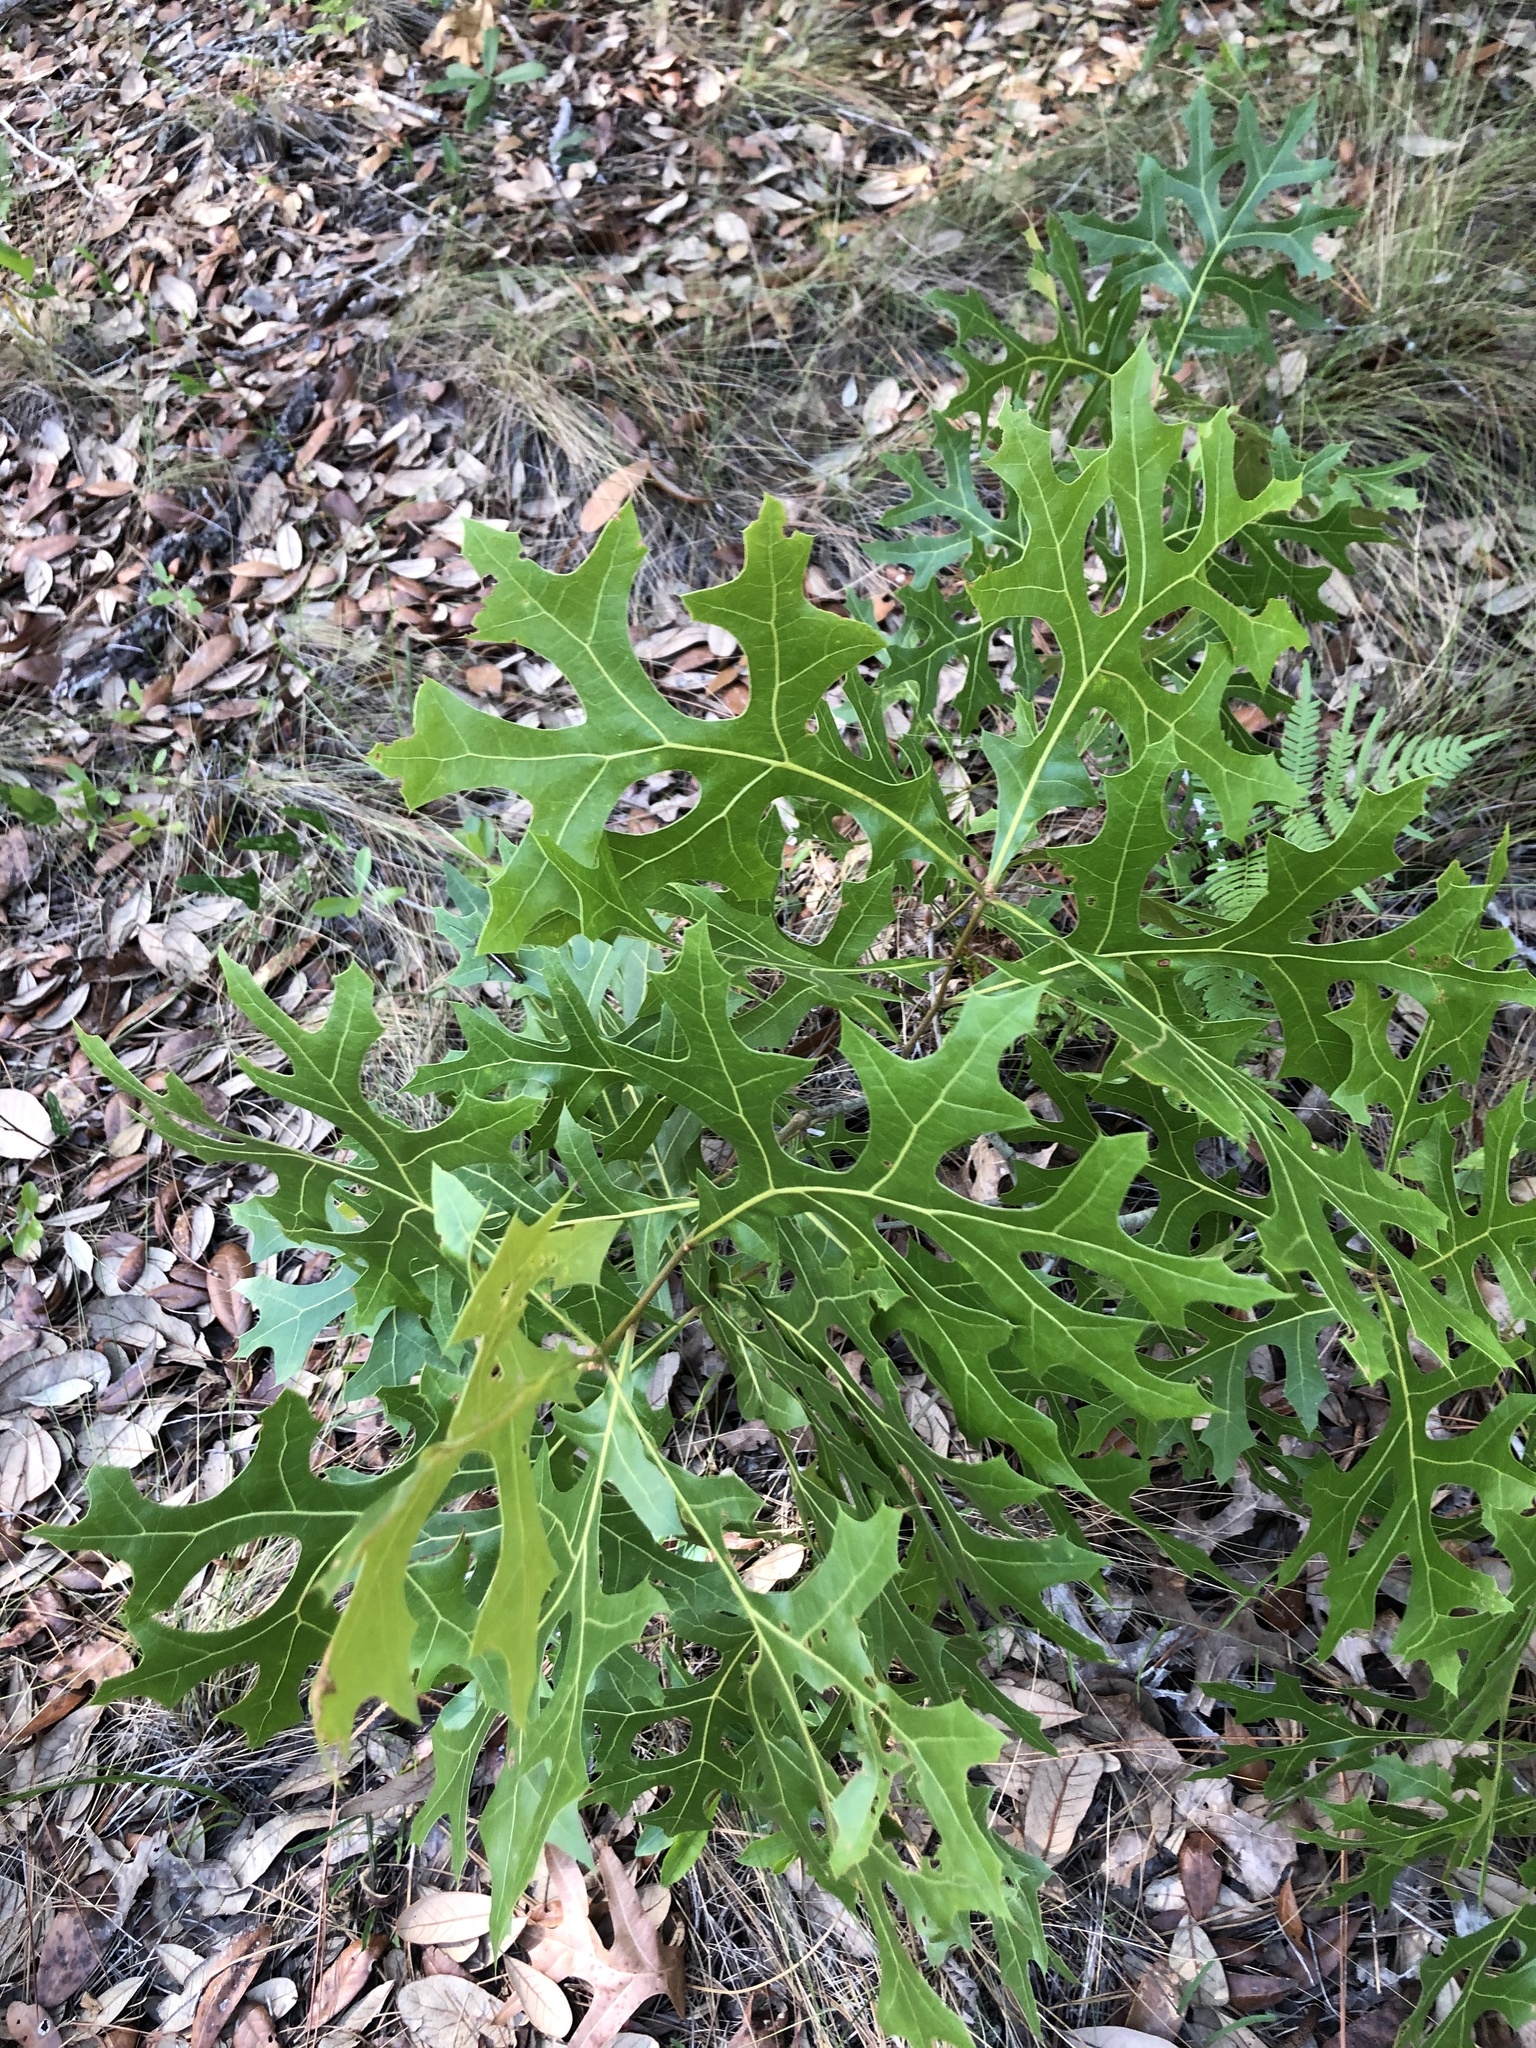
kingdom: Plantae
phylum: Tracheophyta
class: Magnoliopsida
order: Fagales
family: Fagaceae
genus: Quercus
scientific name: Quercus laevis
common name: Turkey oak
